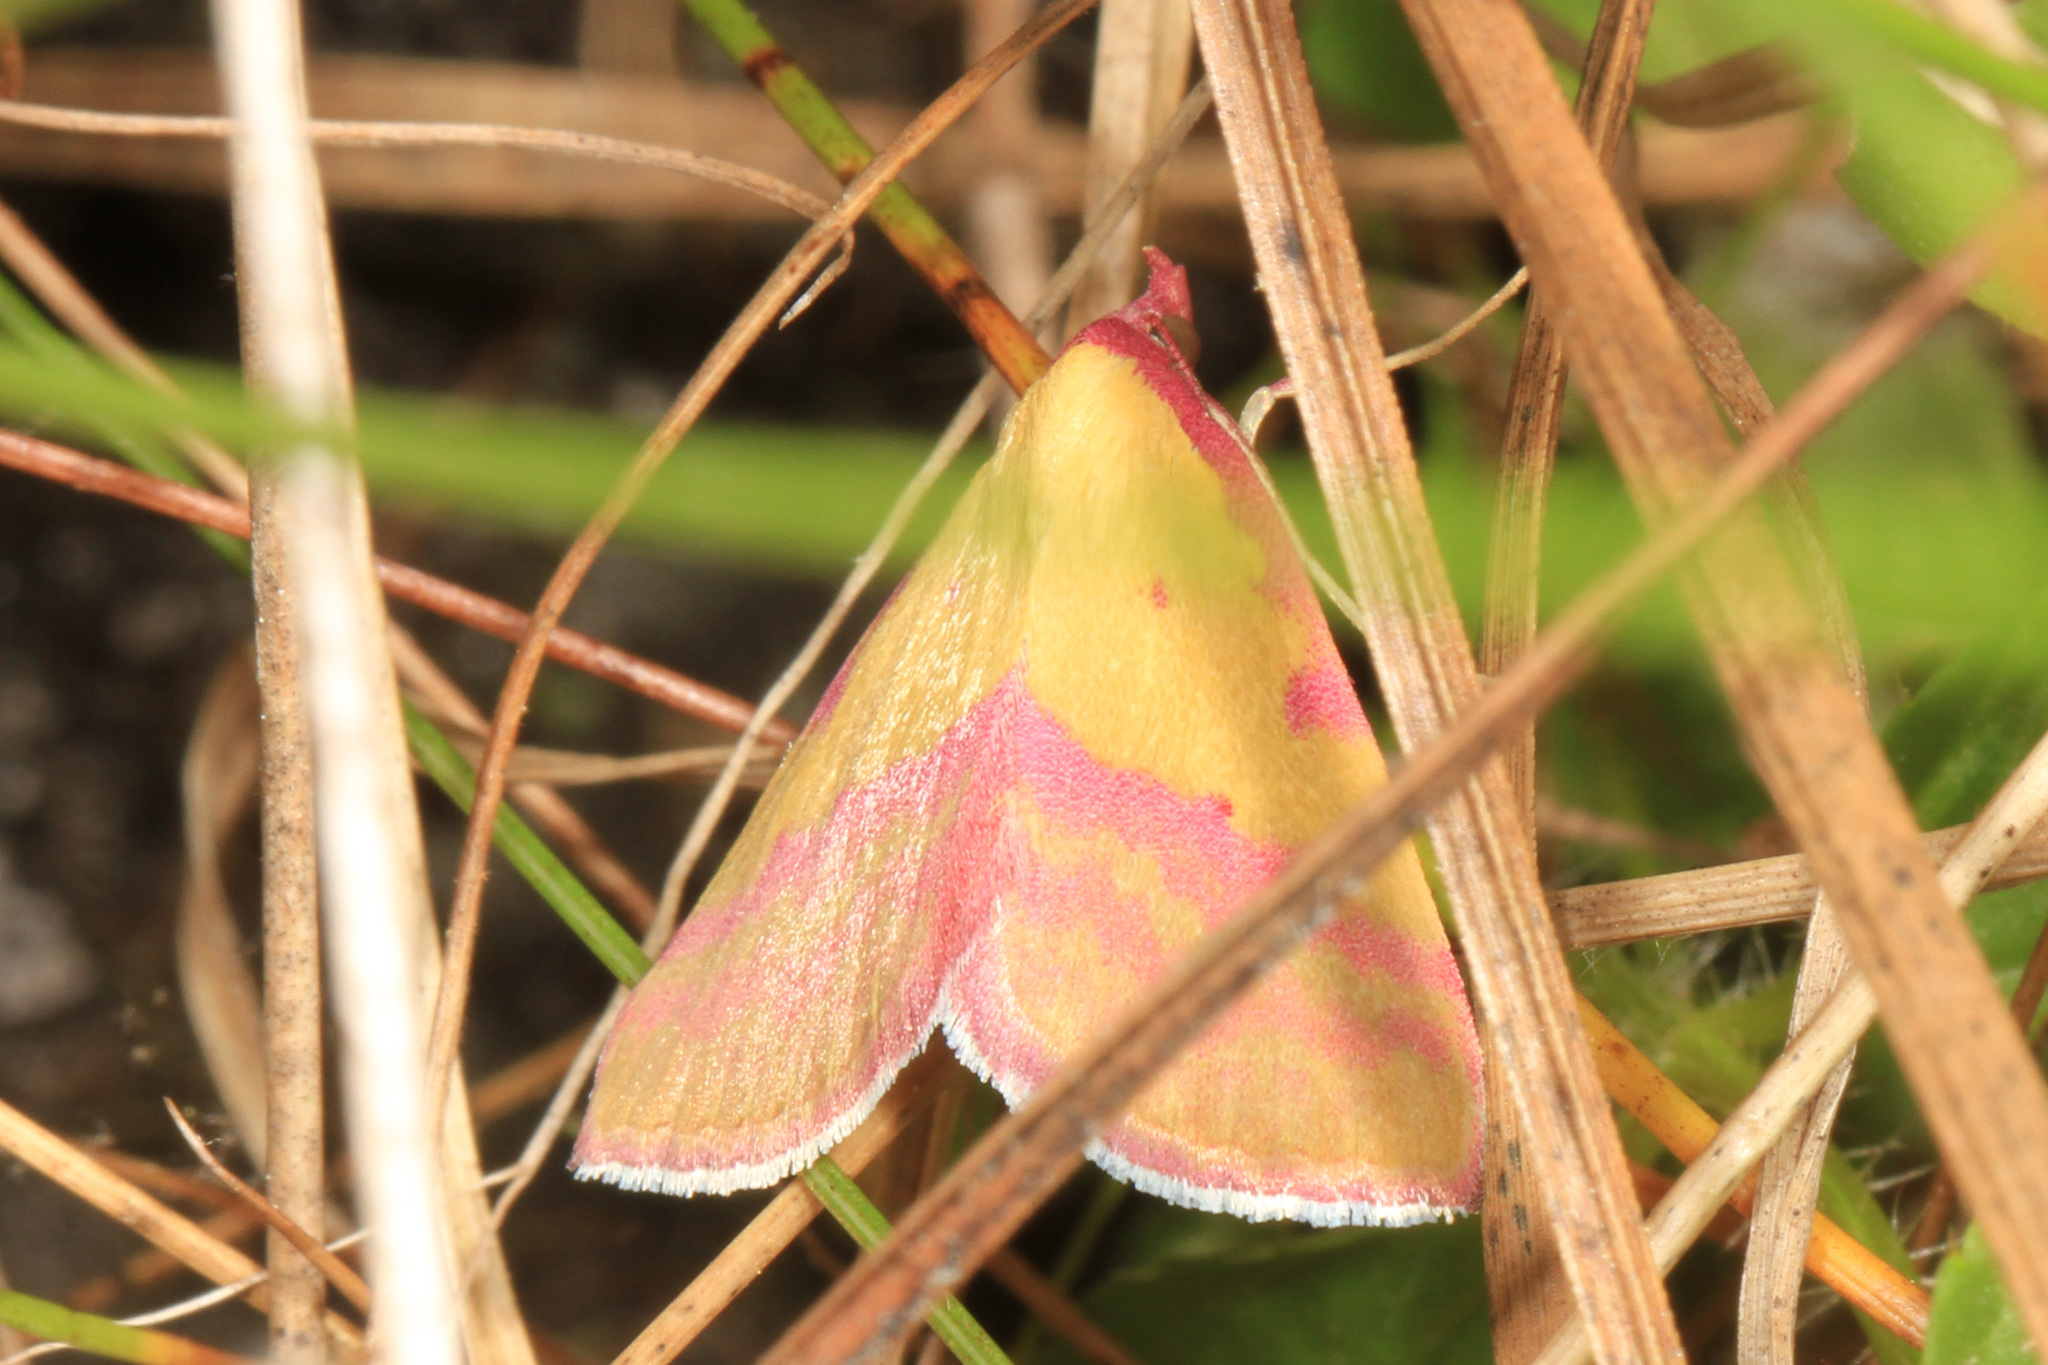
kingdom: Animalia
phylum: Arthropoda
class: Insecta
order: Lepidoptera
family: Erebidae
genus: Phytometra
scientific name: Phytometra rhodarialis
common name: Pink-bordered yellow
